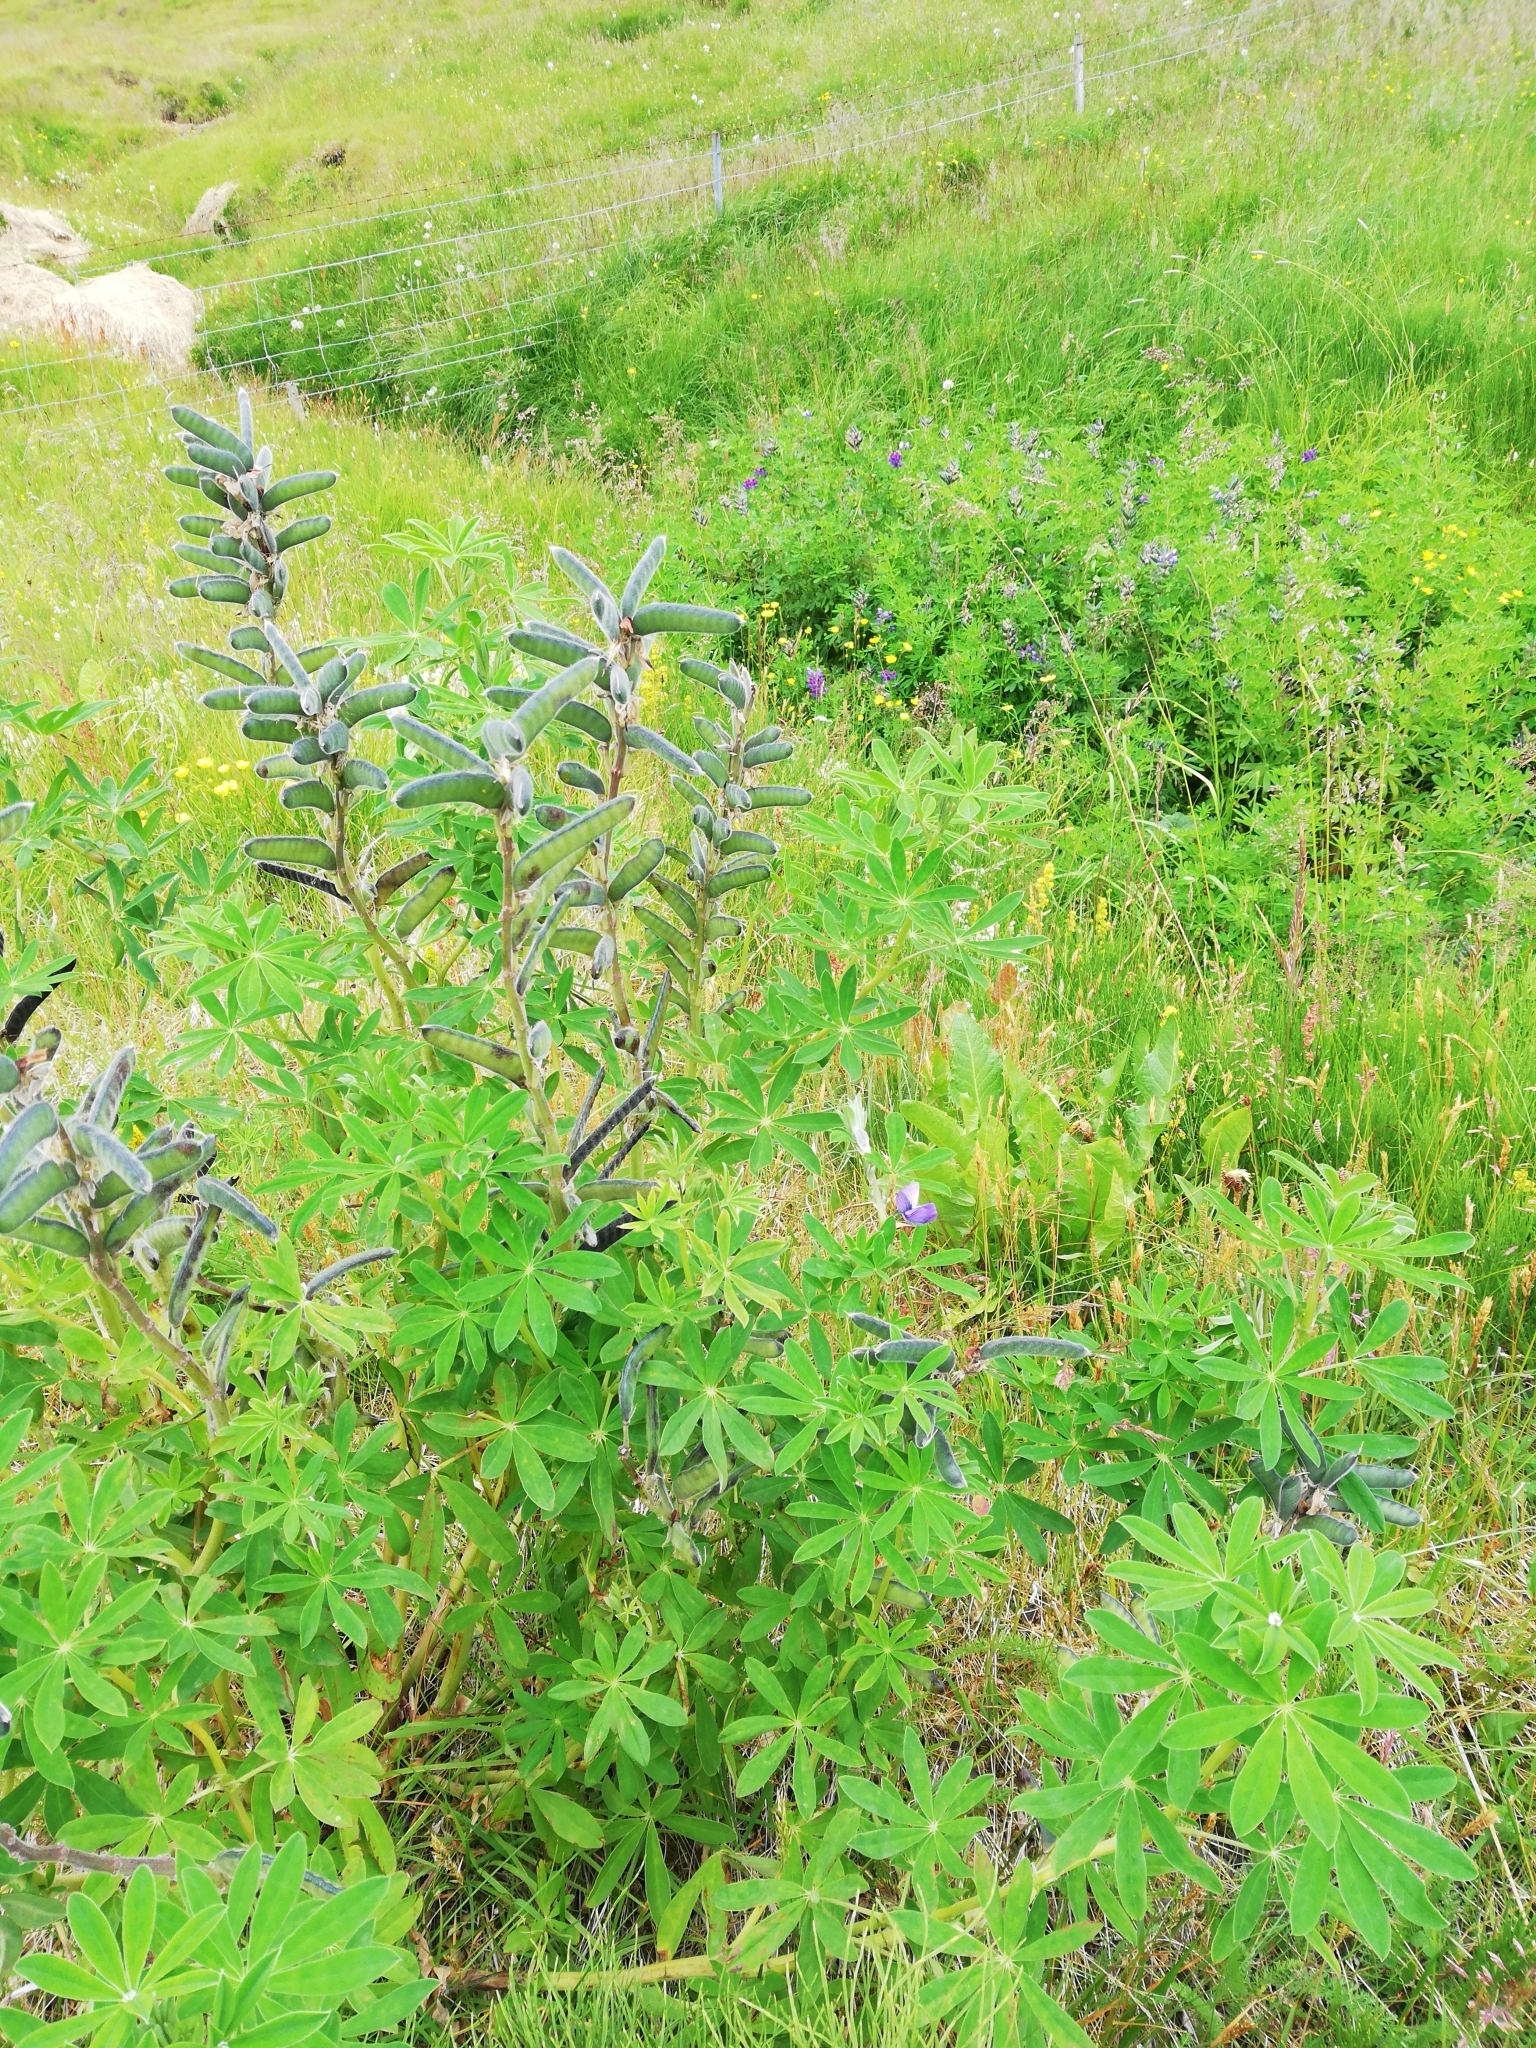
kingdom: Plantae
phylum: Tracheophyta
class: Magnoliopsida
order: Fabales
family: Fabaceae
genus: Lupinus
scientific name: Lupinus nootkatensis
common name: Nootka lupine
